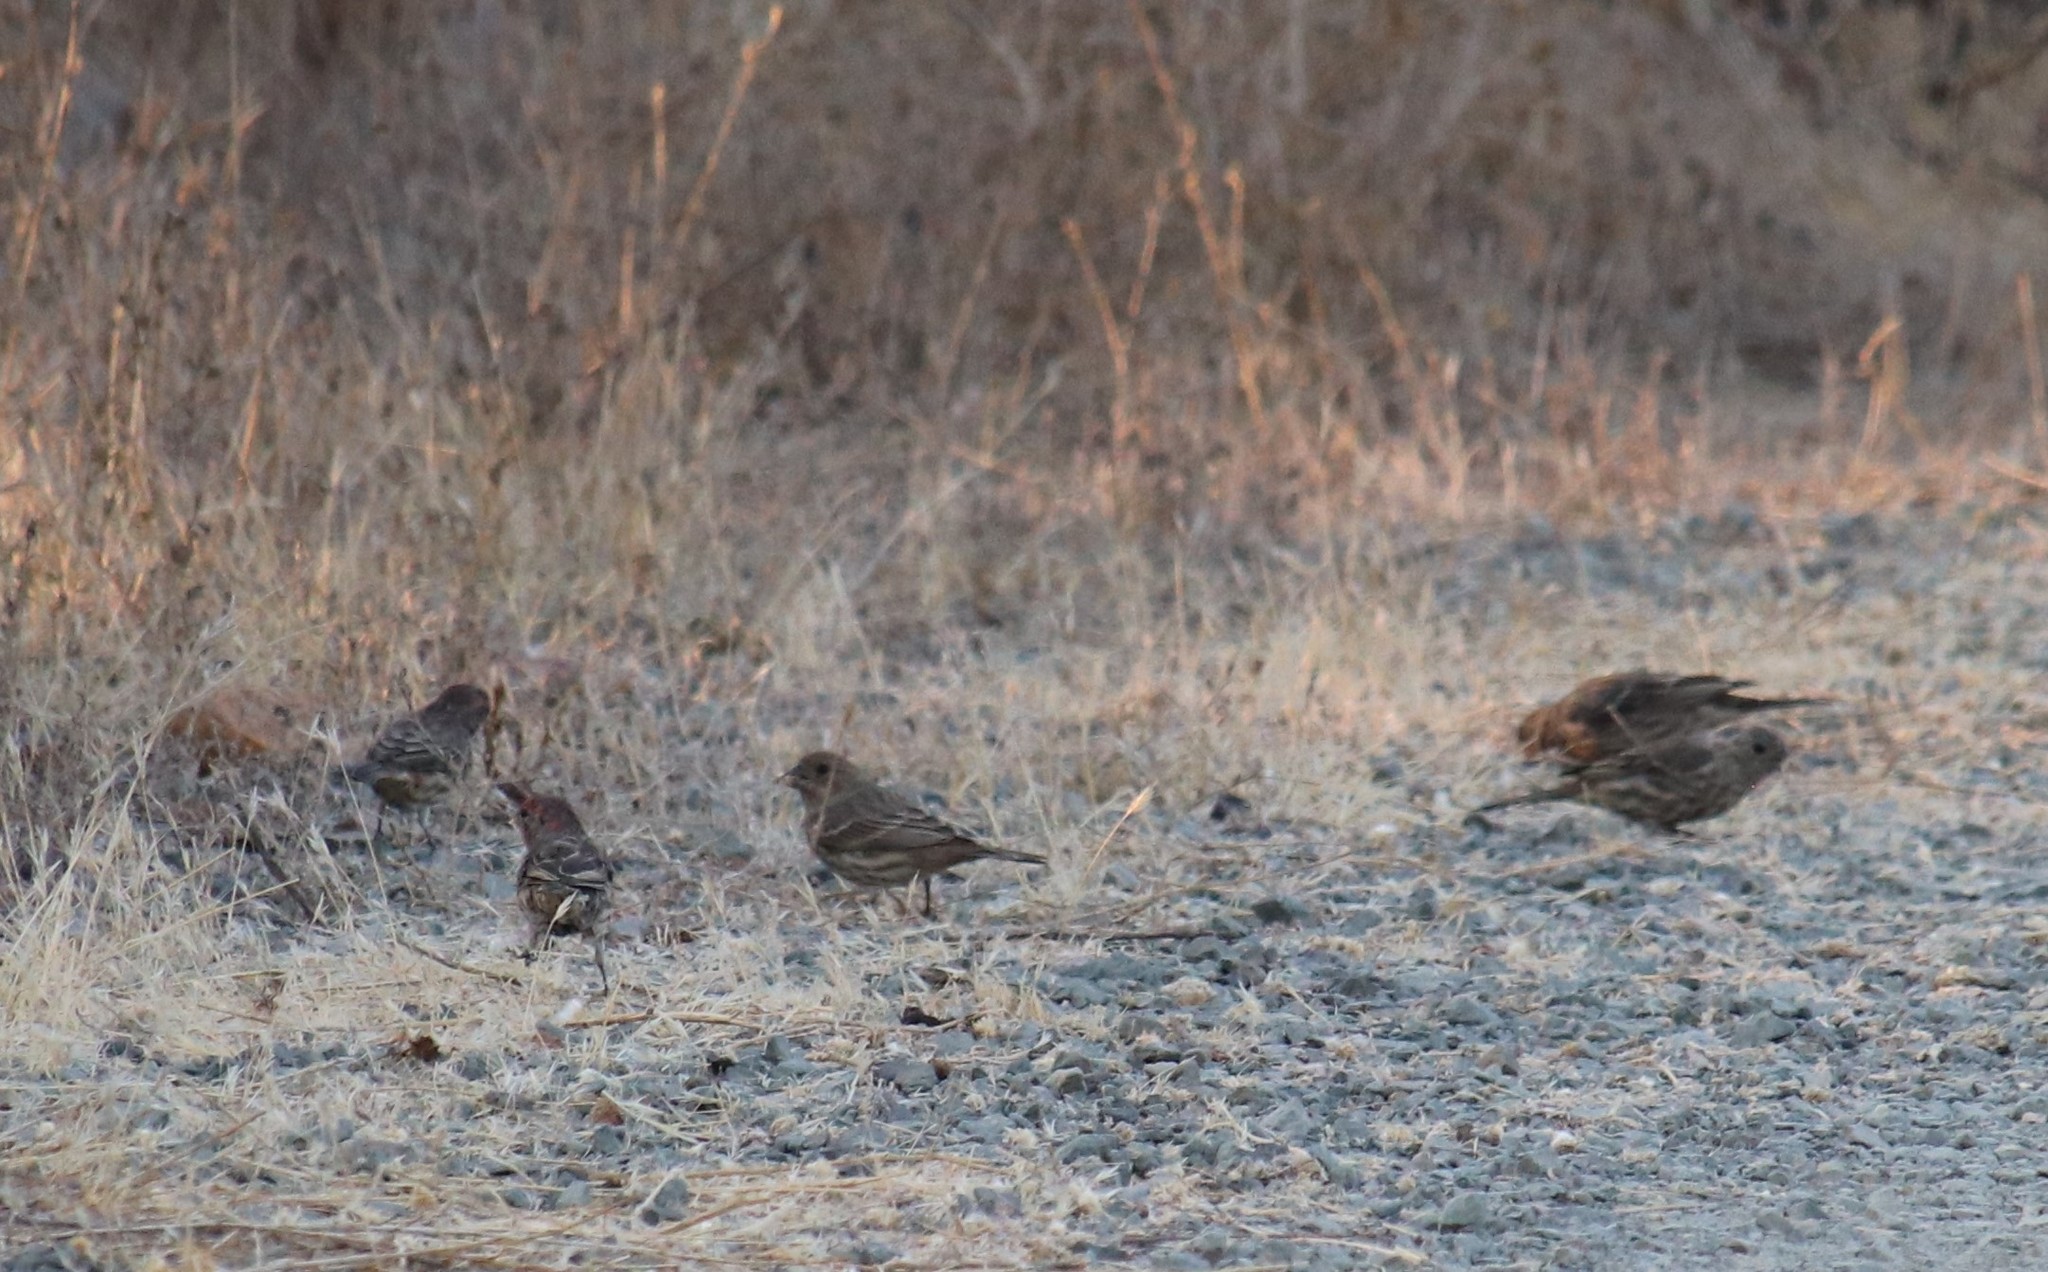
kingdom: Animalia
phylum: Chordata
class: Aves
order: Passeriformes
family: Fringillidae
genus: Haemorhous
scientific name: Haemorhous mexicanus
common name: House finch
